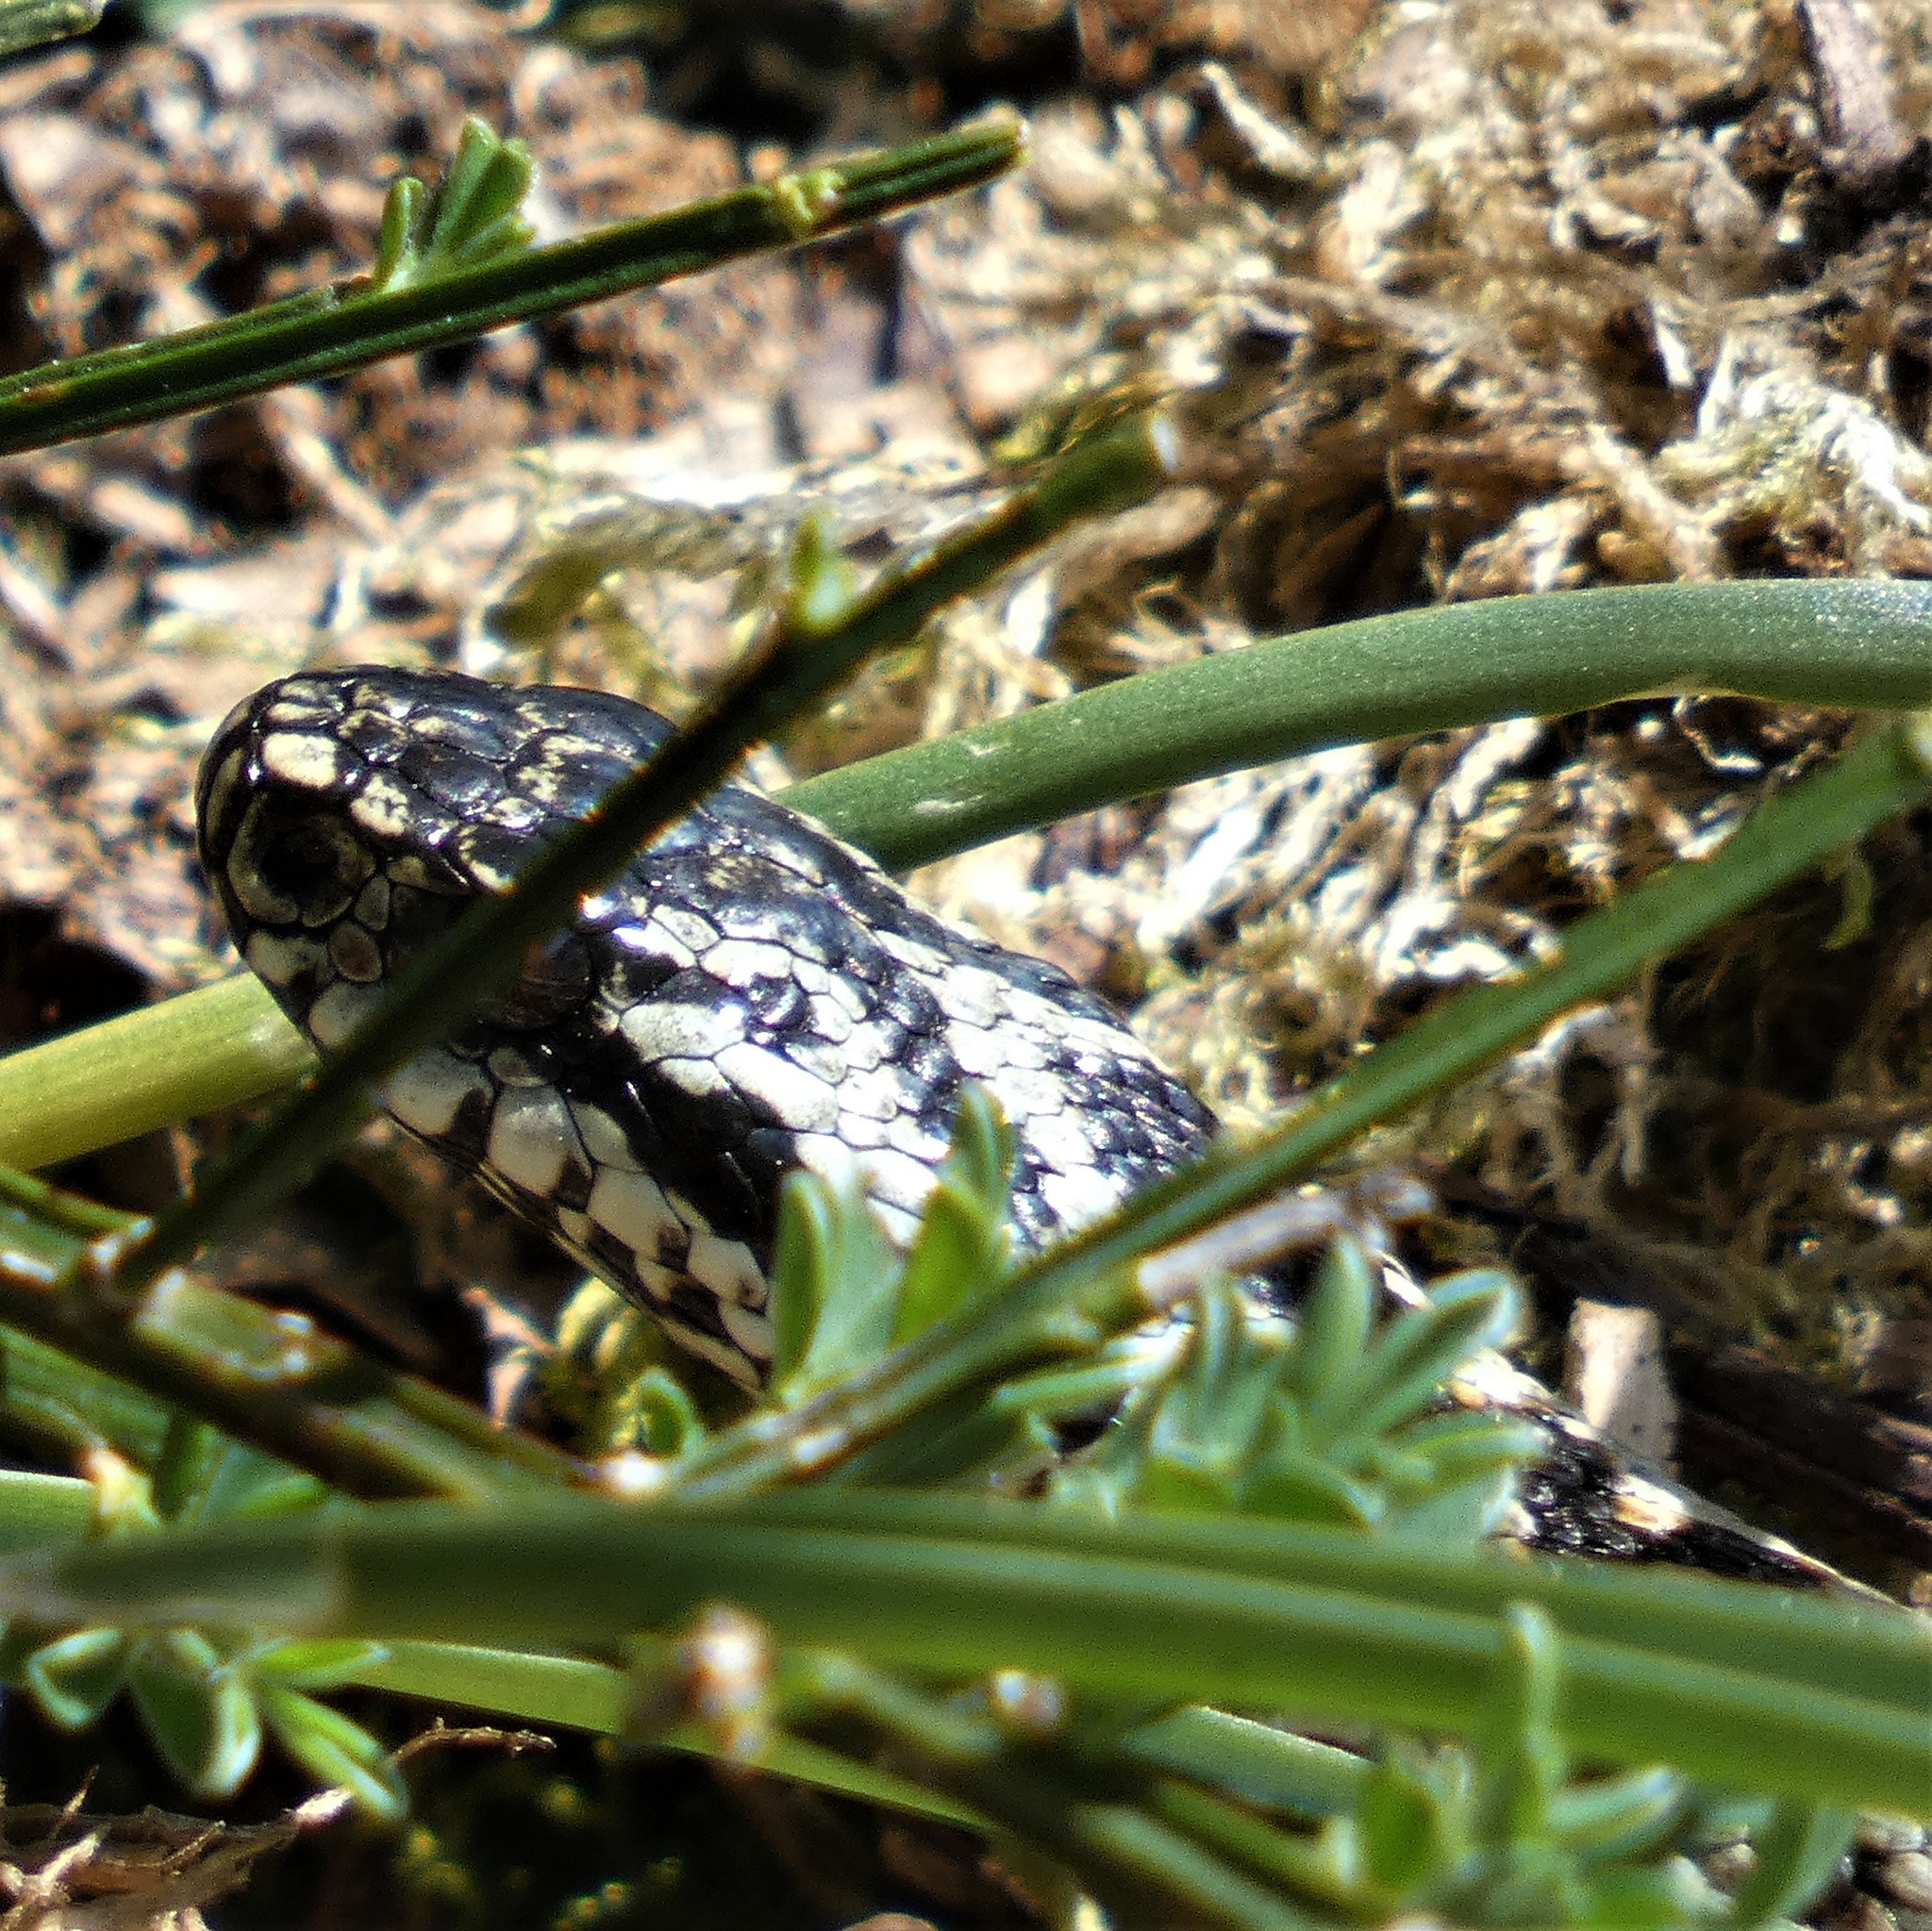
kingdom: Animalia
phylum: Chordata
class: Squamata
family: Viperidae
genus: Vipera
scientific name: Vipera berus
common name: Adder
